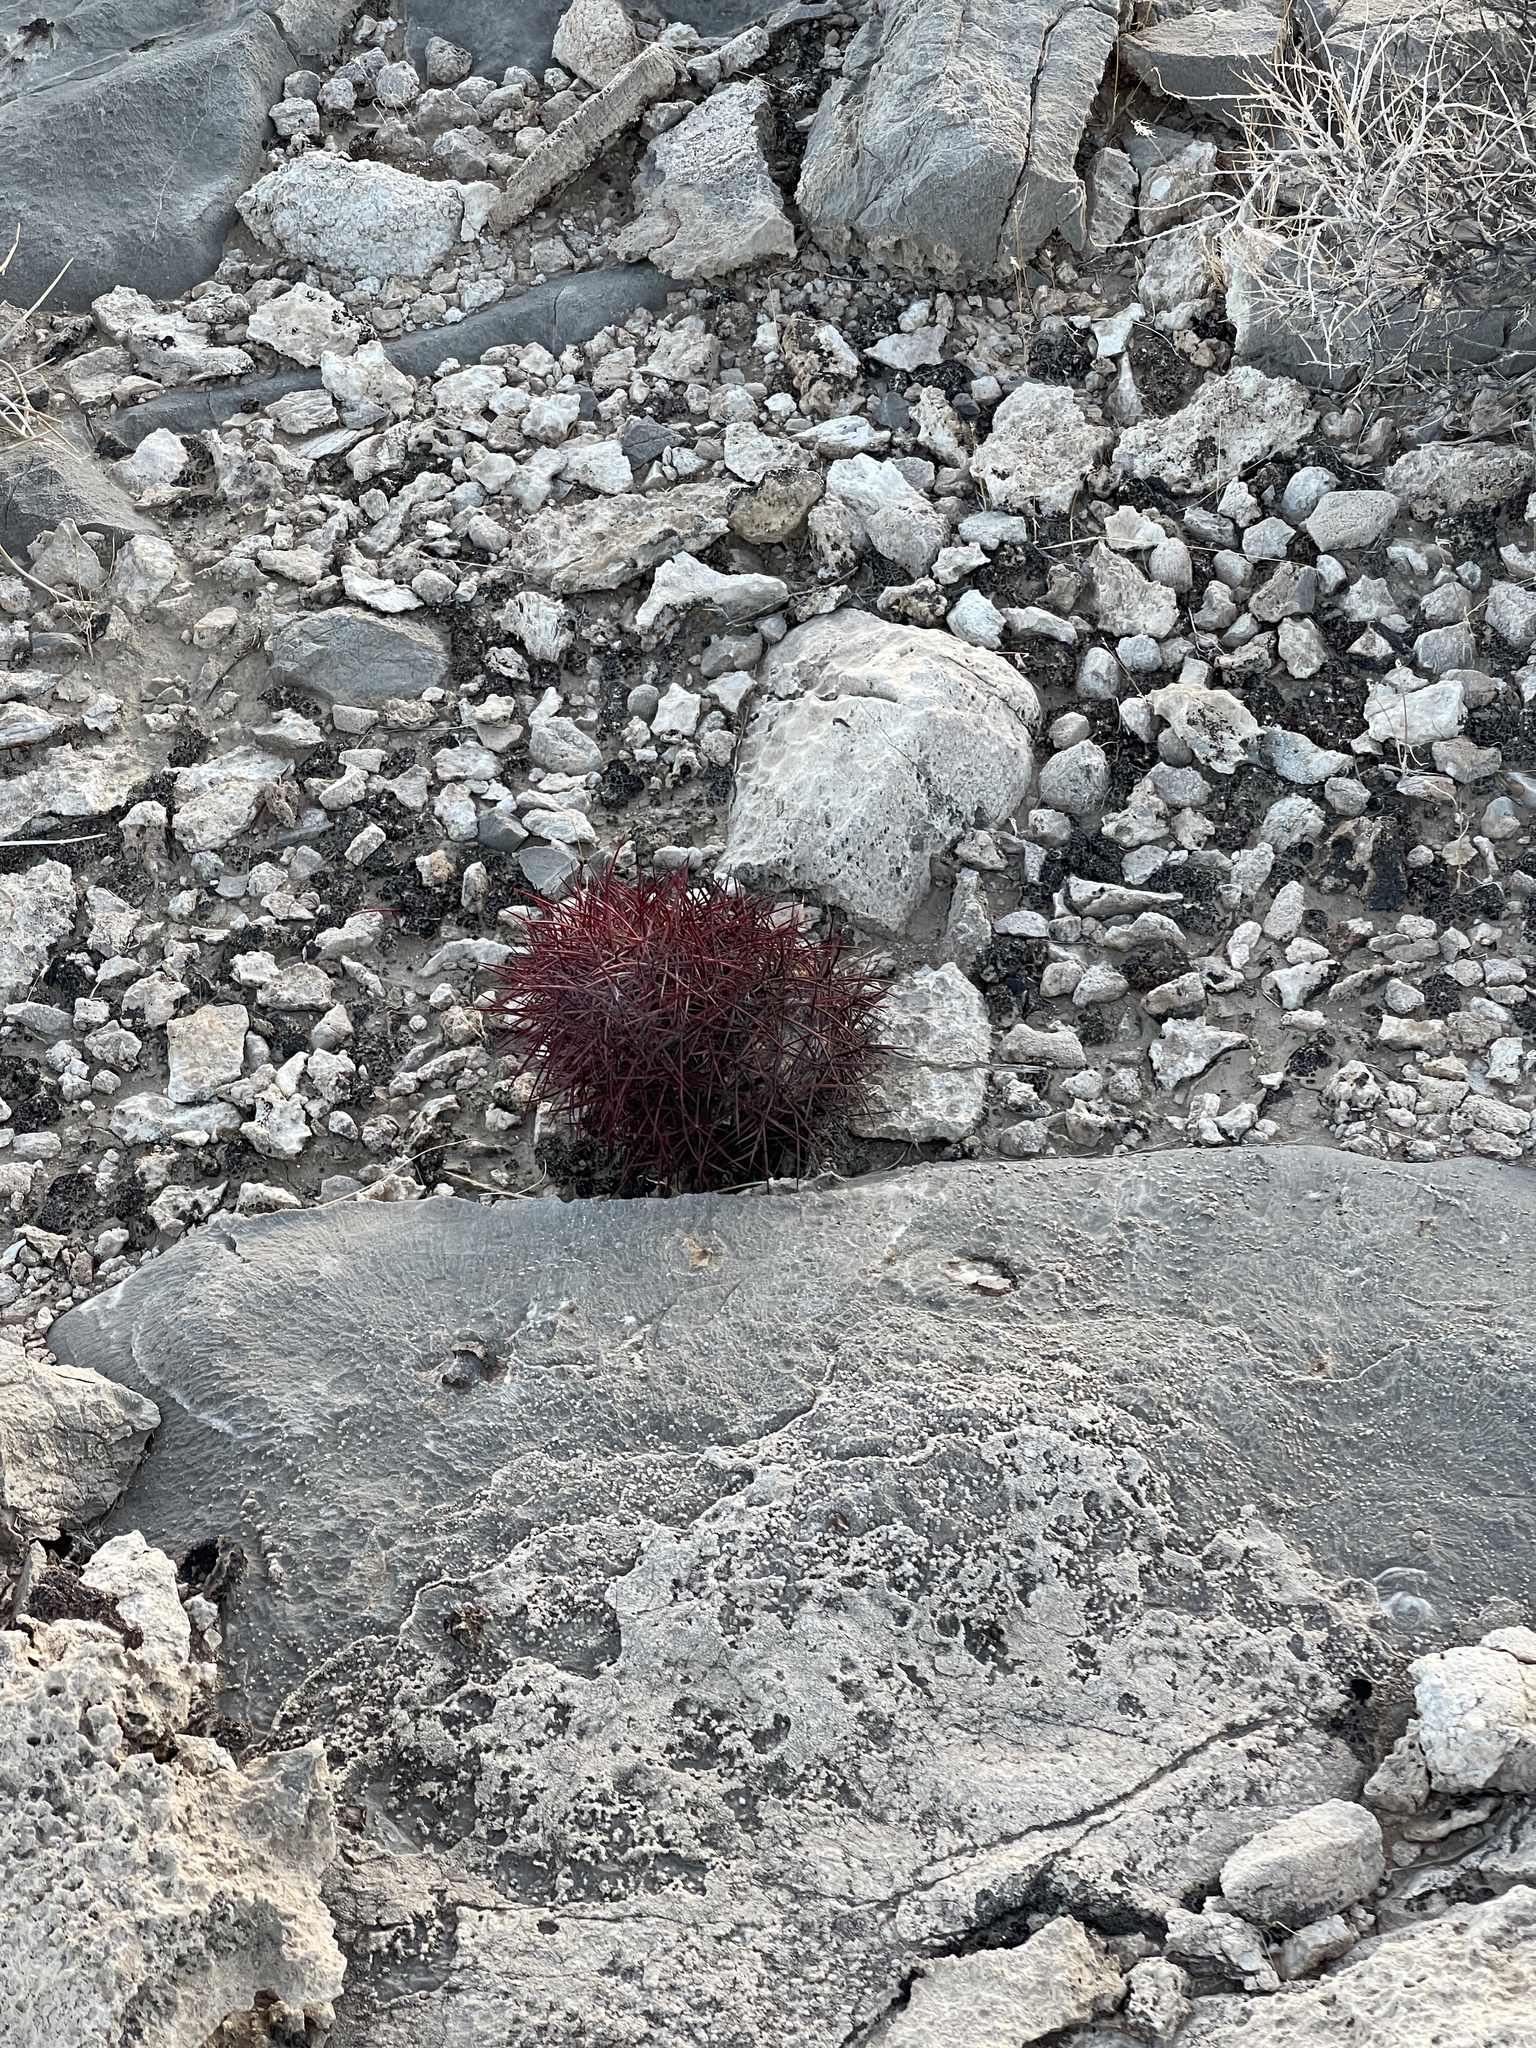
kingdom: Plantae
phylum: Tracheophyta
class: Magnoliopsida
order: Caryophyllales
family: Cactaceae
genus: Sclerocactus
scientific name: Sclerocactus johnsonii
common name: Eight-spine fishhook cactus
